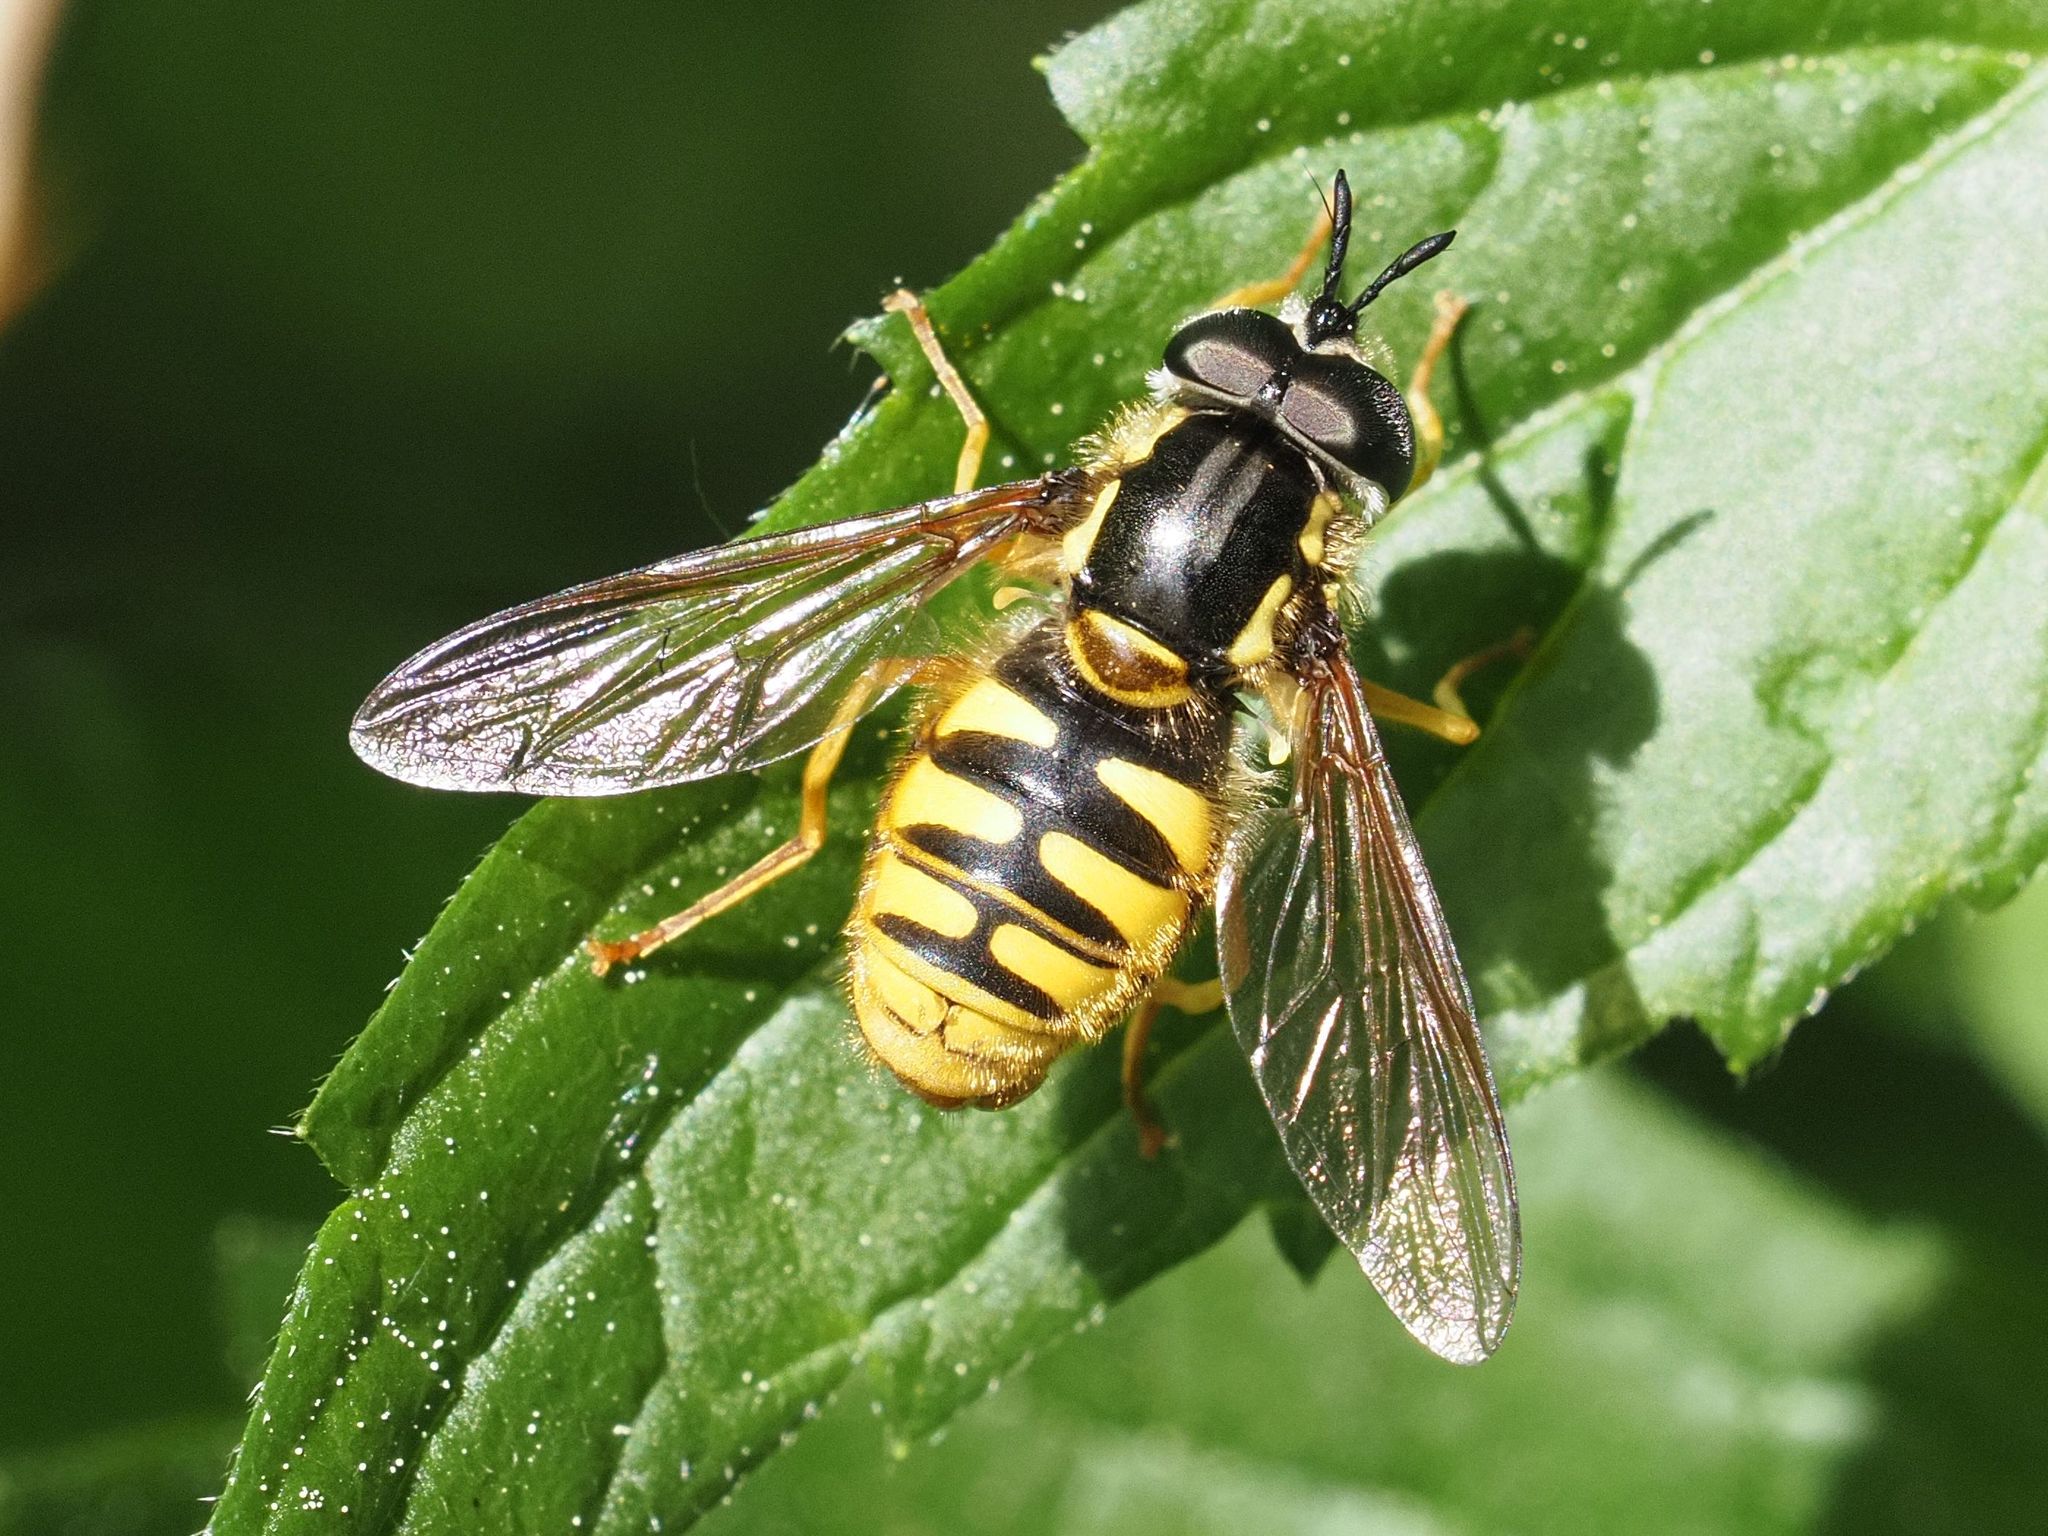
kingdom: Animalia
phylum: Arthropoda
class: Insecta
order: Diptera
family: Syrphidae
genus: Chrysotoxum
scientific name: Chrysotoxum cautum
